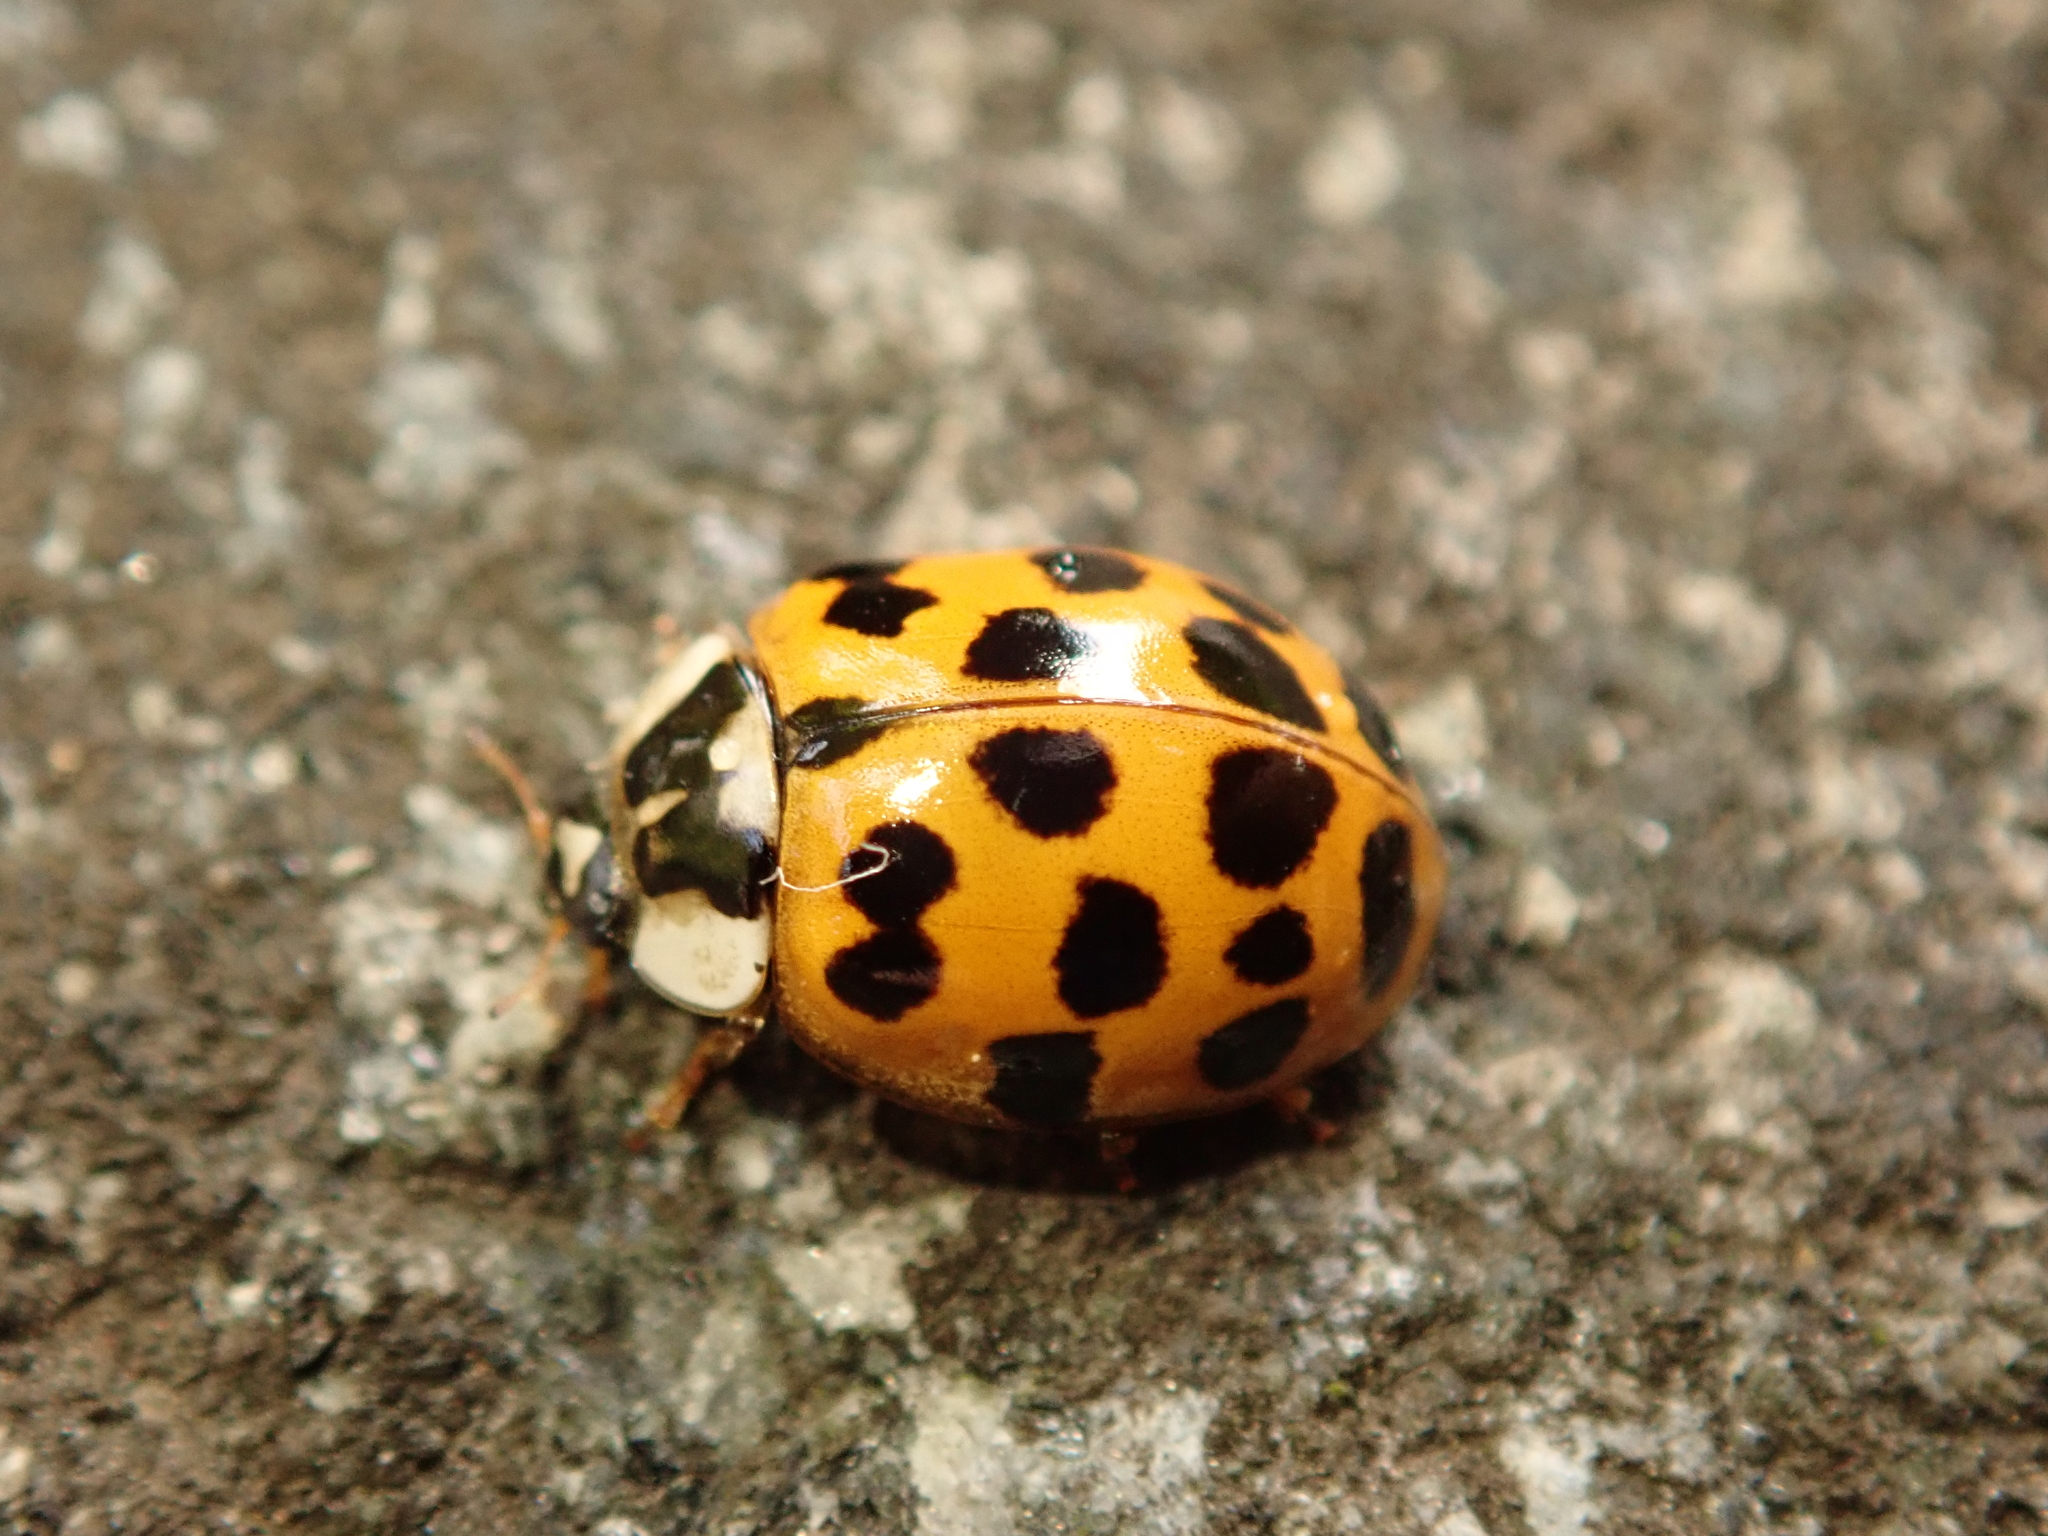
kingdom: Animalia
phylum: Arthropoda
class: Insecta
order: Coleoptera
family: Coccinellidae
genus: Harmonia
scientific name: Harmonia axyridis
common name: Harlequin ladybird
